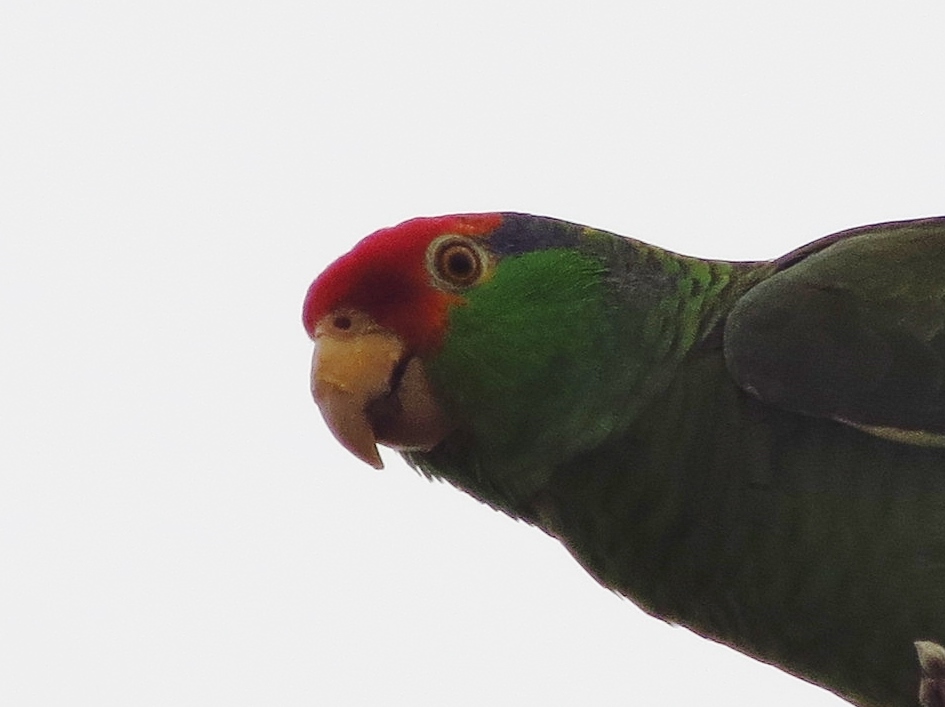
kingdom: Animalia
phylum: Chordata
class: Aves
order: Psittaciformes
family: Psittacidae
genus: Amazona
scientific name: Amazona viridigenalis
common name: Red-crowned amazon
